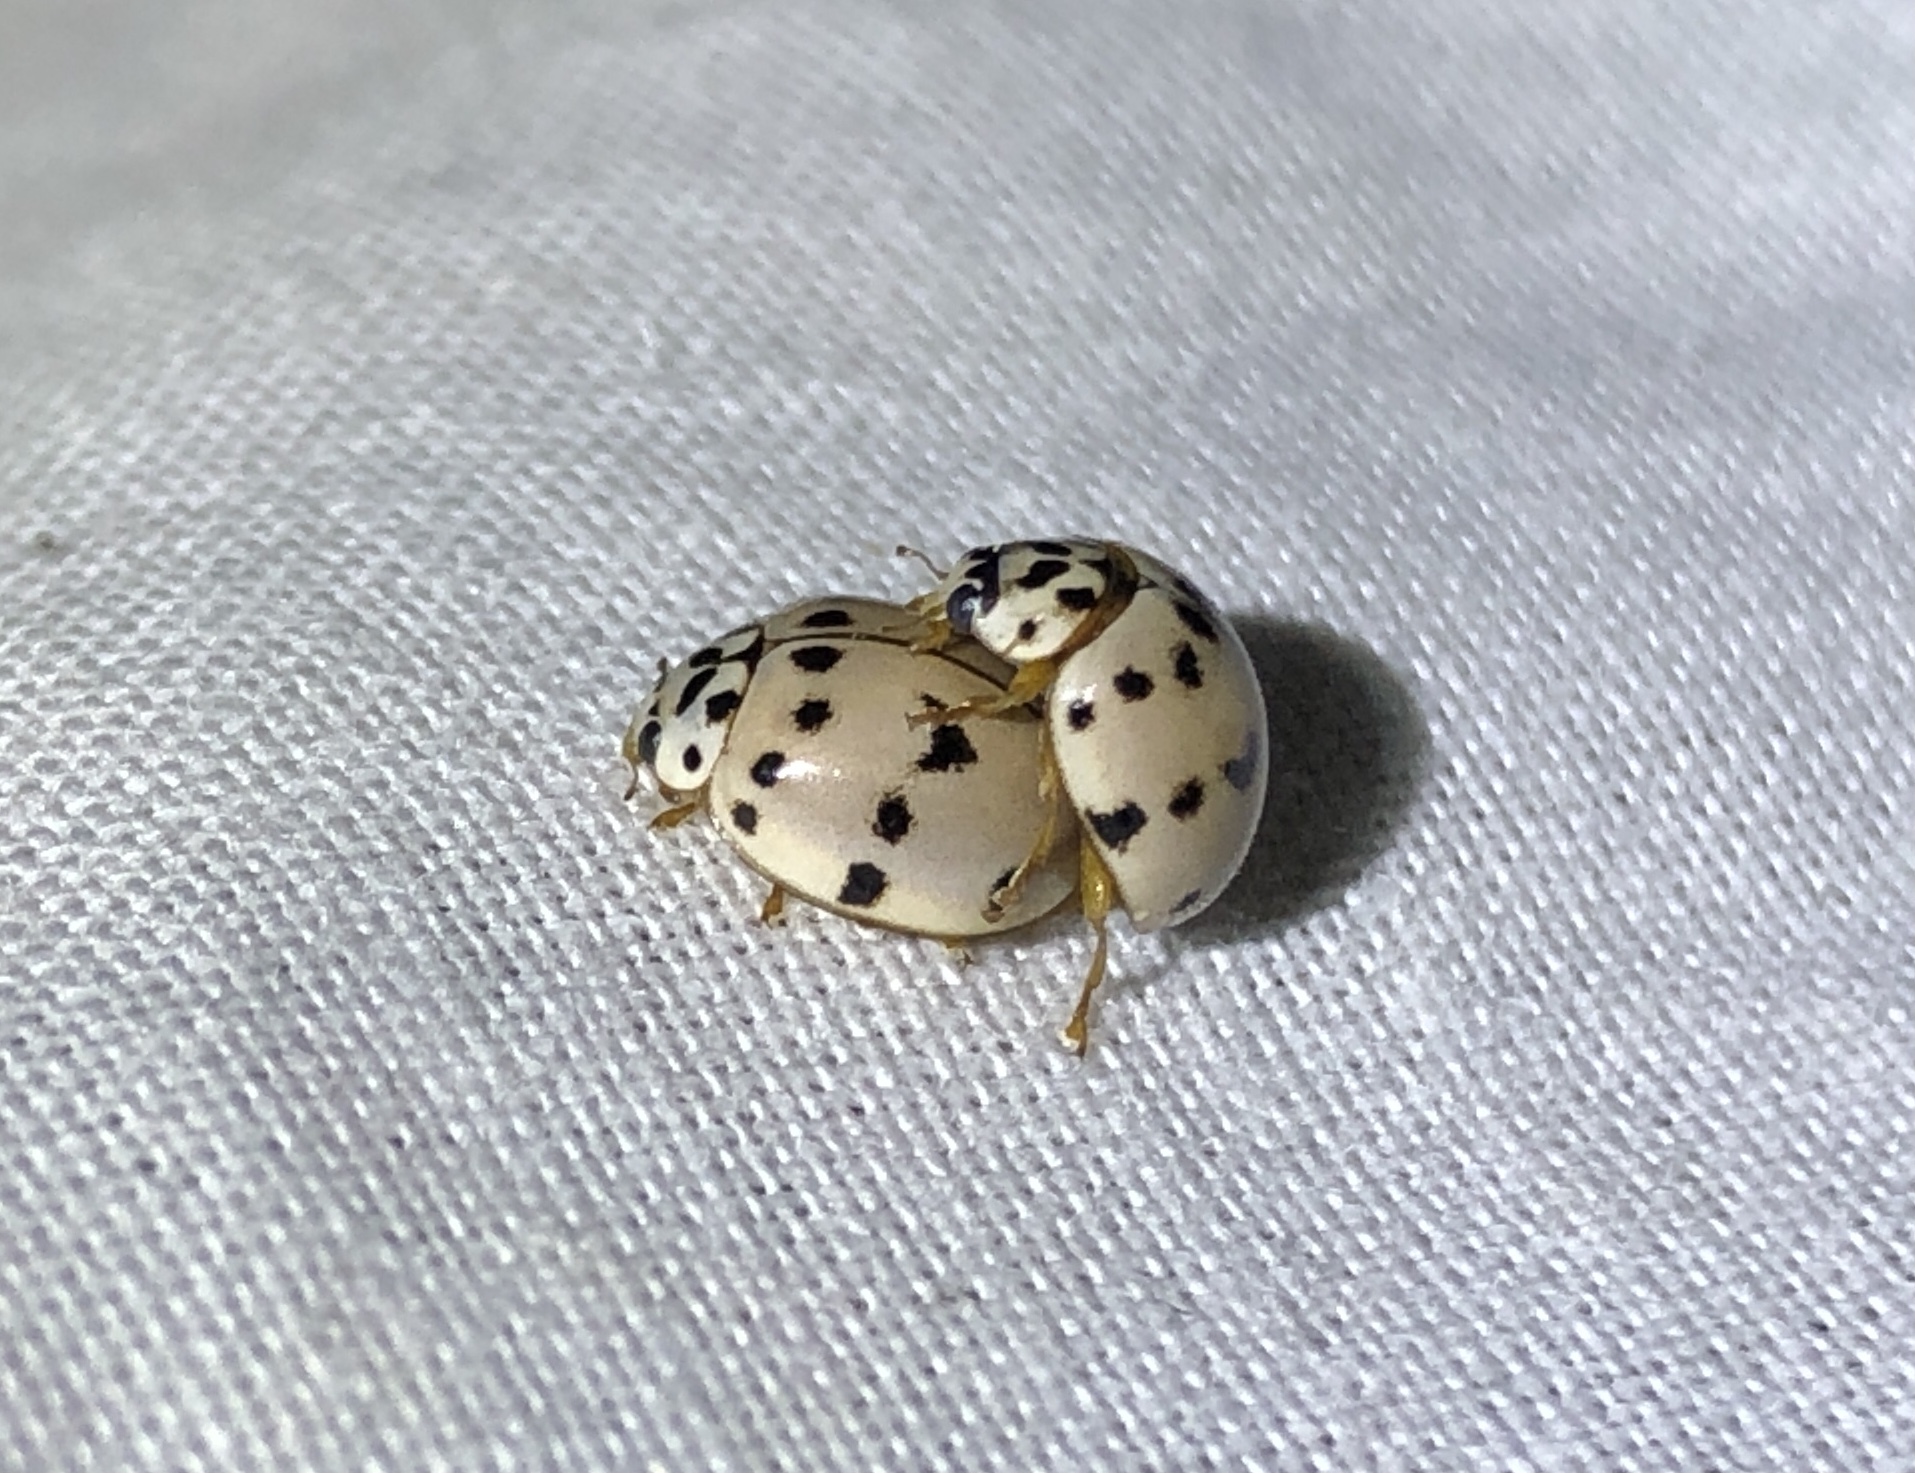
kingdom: Animalia
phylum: Arthropoda
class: Insecta
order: Coleoptera
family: Coccinellidae
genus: Olla
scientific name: Olla v-nigrum
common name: Ashy gray lady beetle
